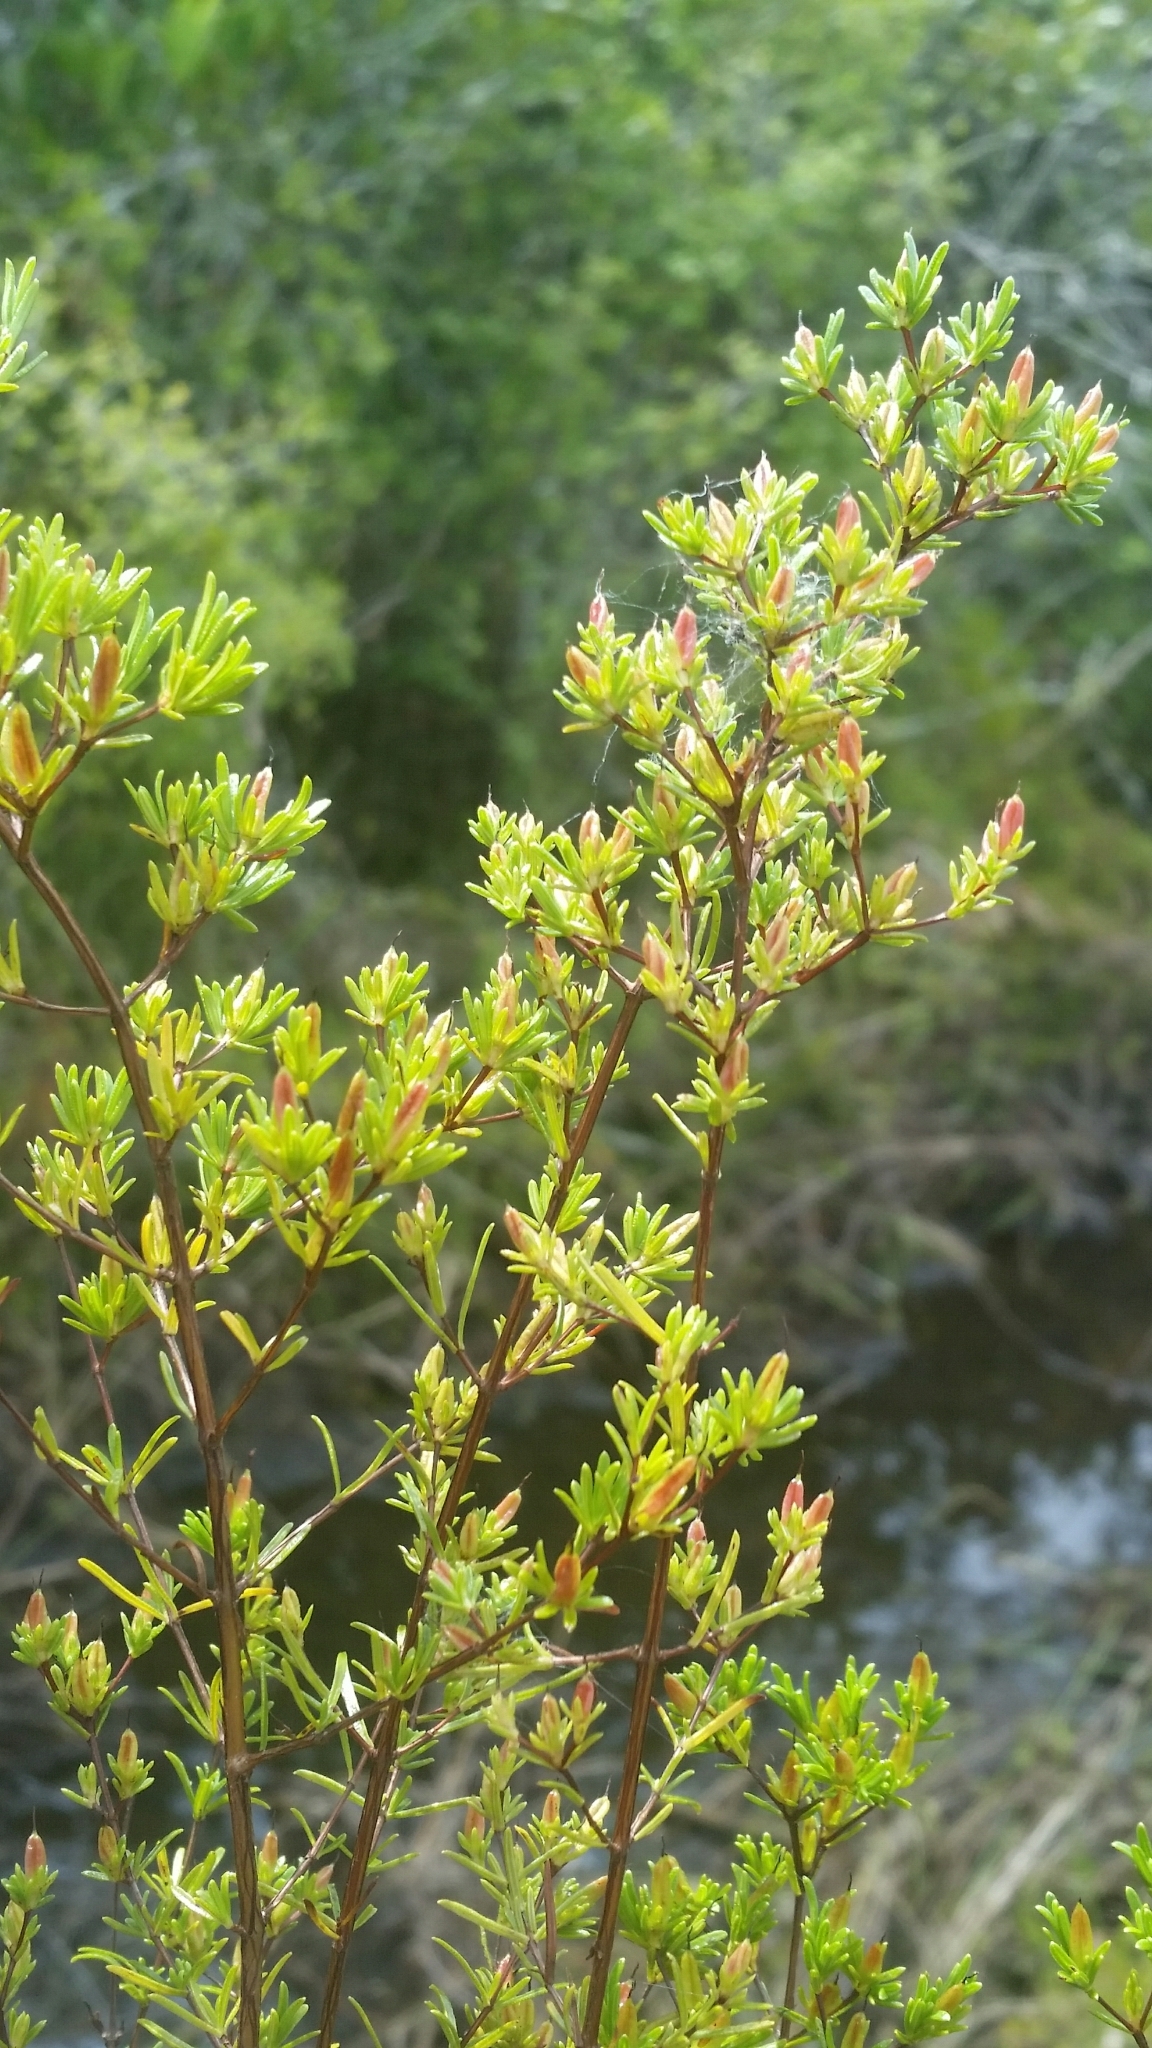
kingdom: Plantae
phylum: Tracheophyta
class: Magnoliopsida
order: Malpighiales
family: Hypericaceae
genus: Hypericum
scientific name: Hypericum limosum
